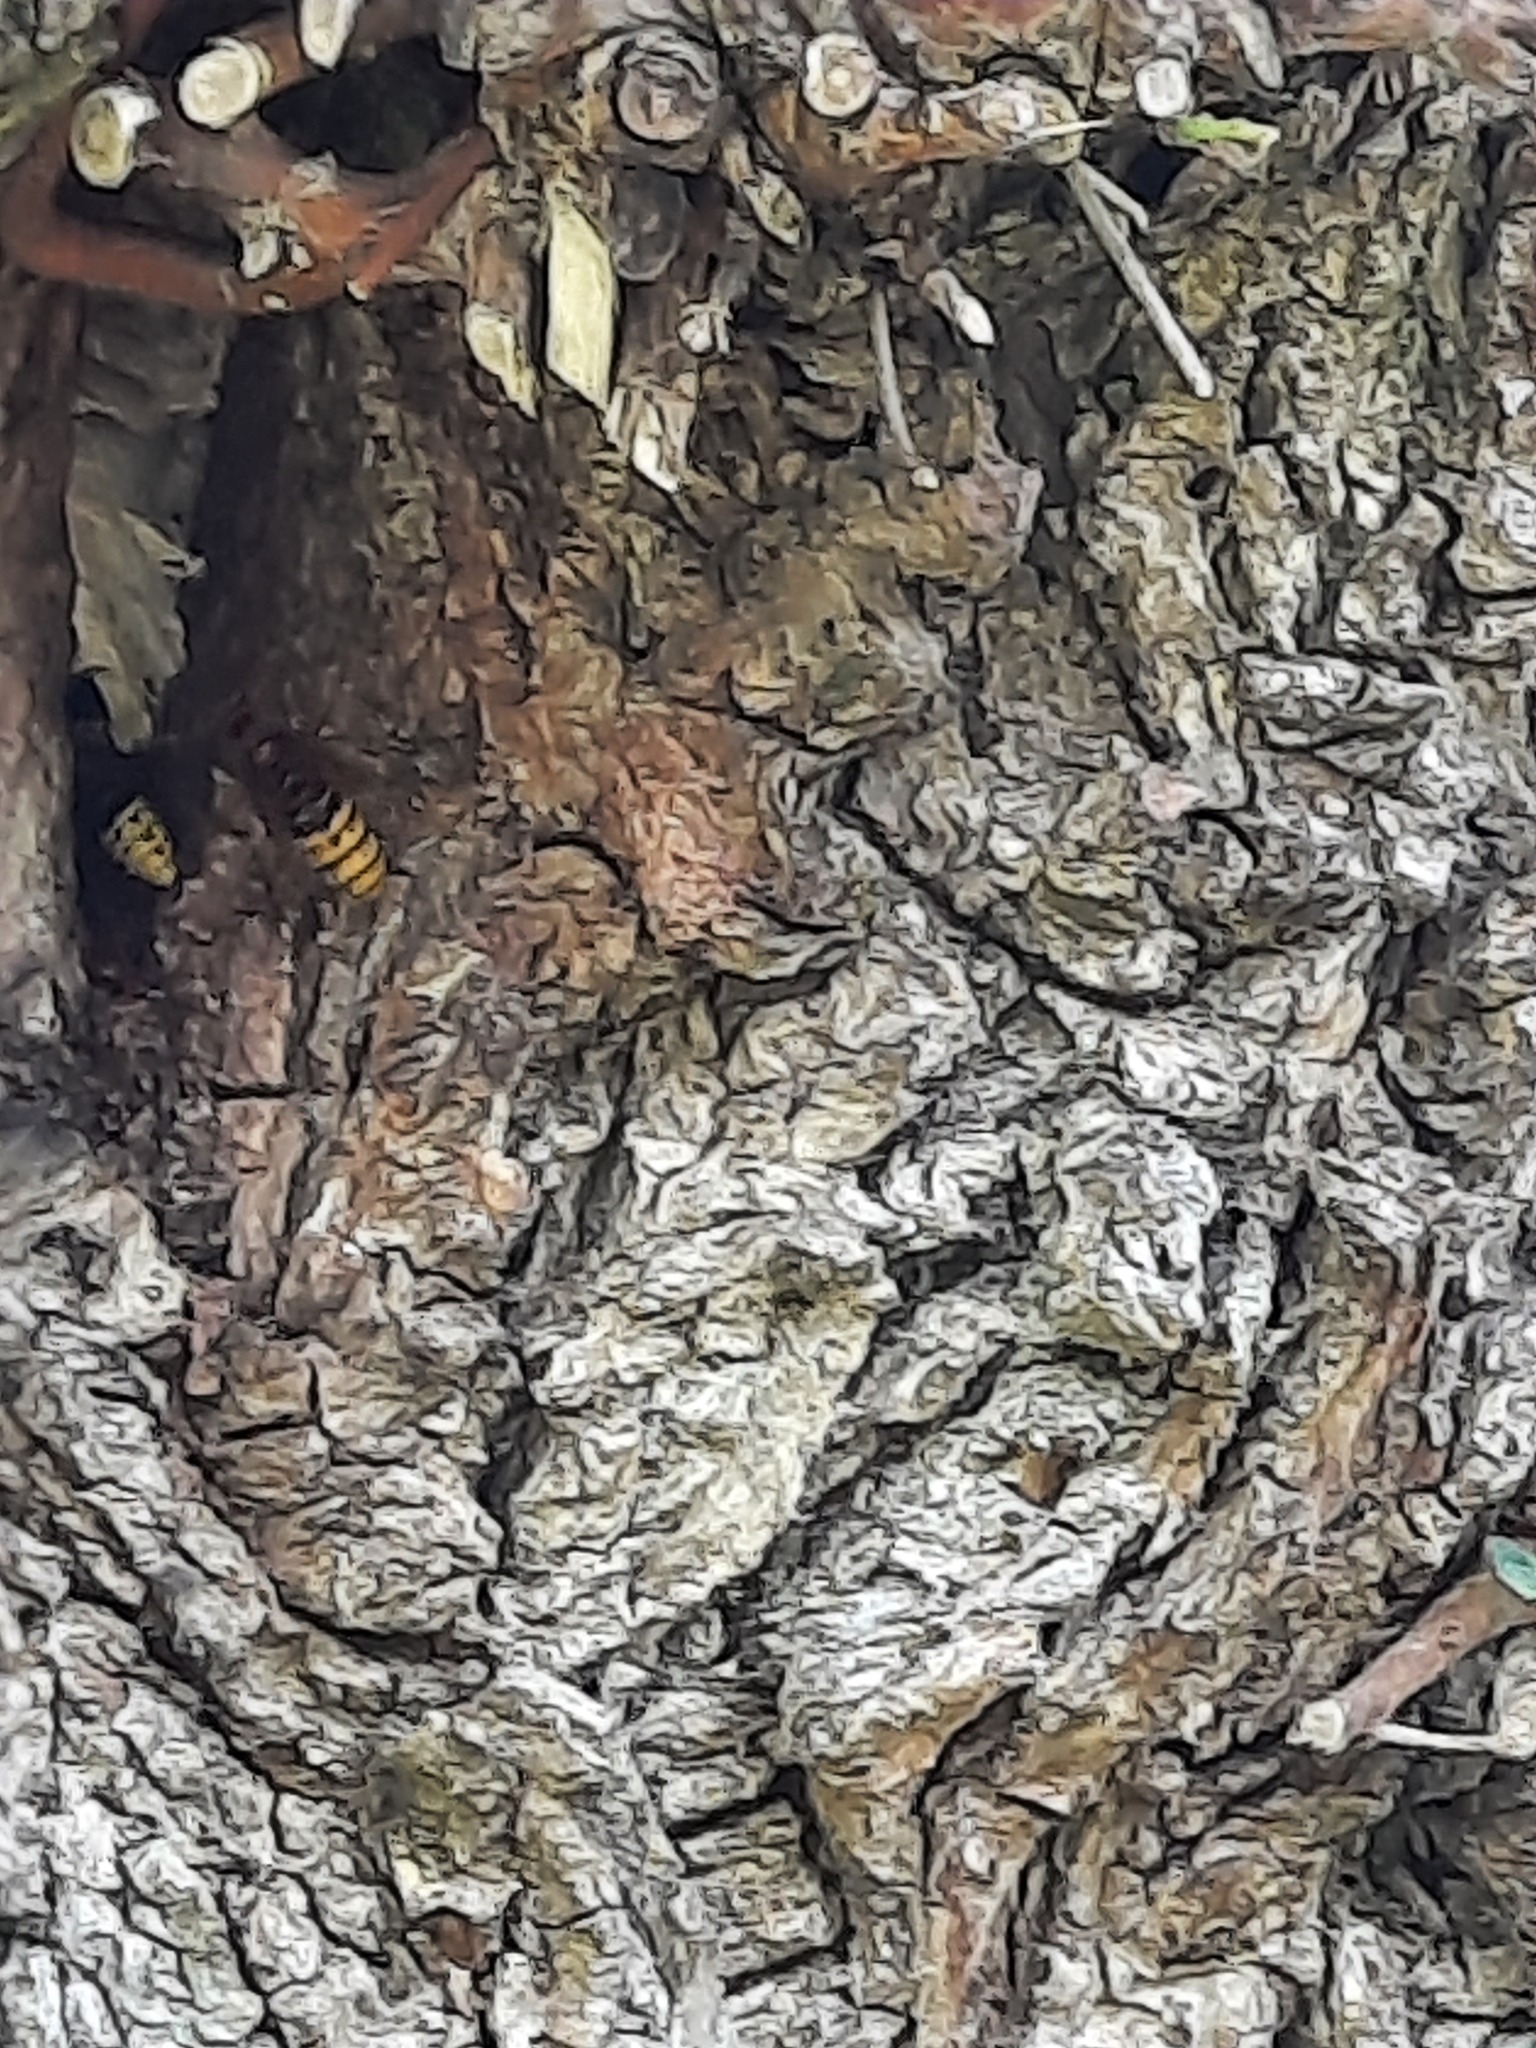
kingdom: Animalia
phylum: Arthropoda
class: Insecta
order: Hymenoptera
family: Vespidae
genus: Vespa
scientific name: Vespa crabro
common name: Hornet
